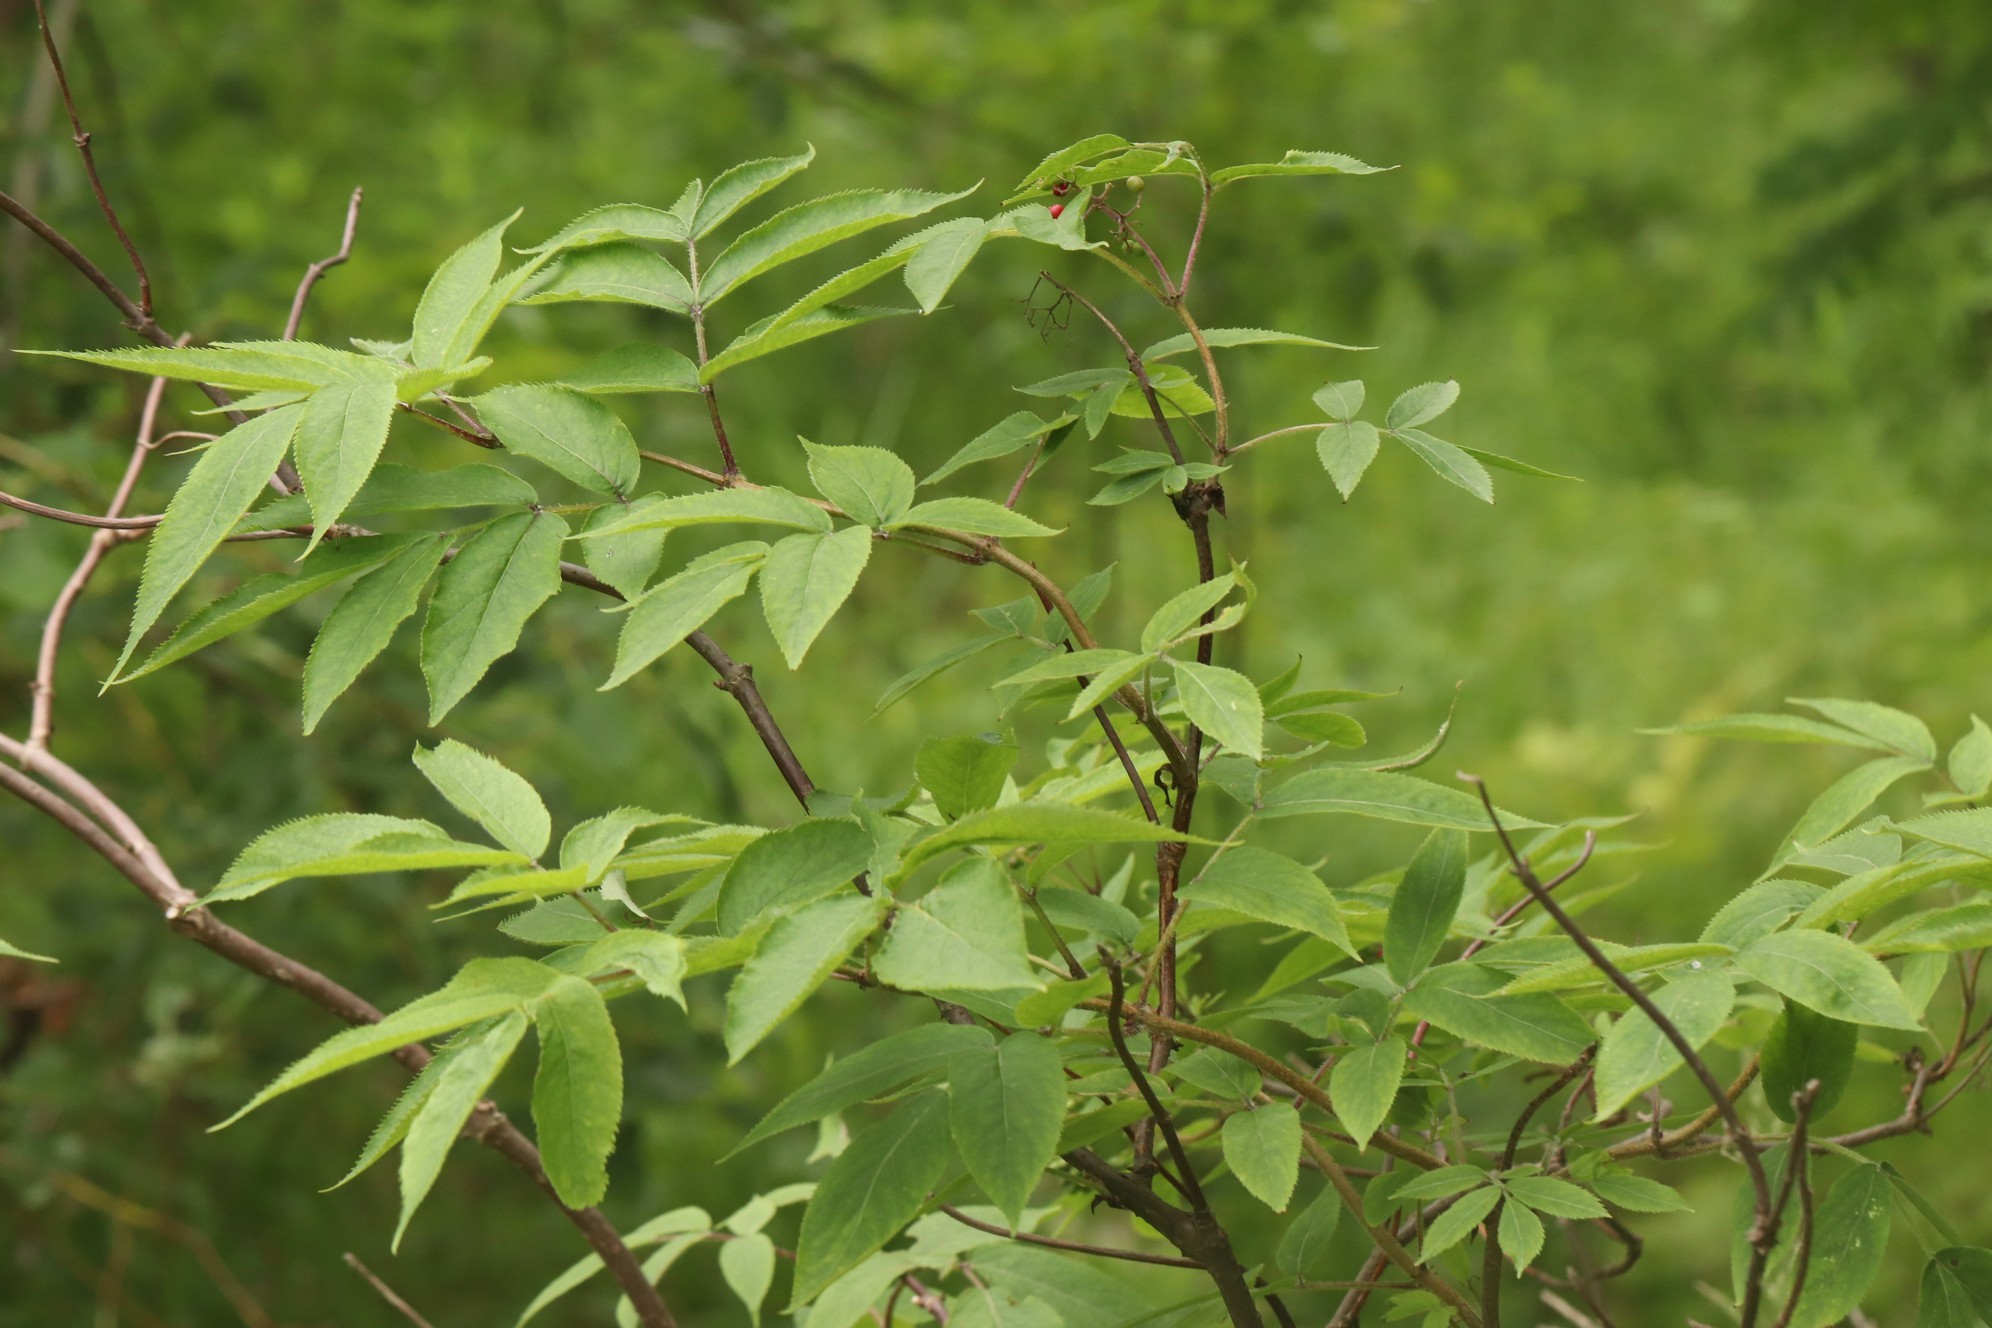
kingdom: Plantae
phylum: Tracheophyta
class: Magnoliopsida
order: Dipsacales
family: Viburnaceae
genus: Sambucus
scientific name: Sambucus sibirica
